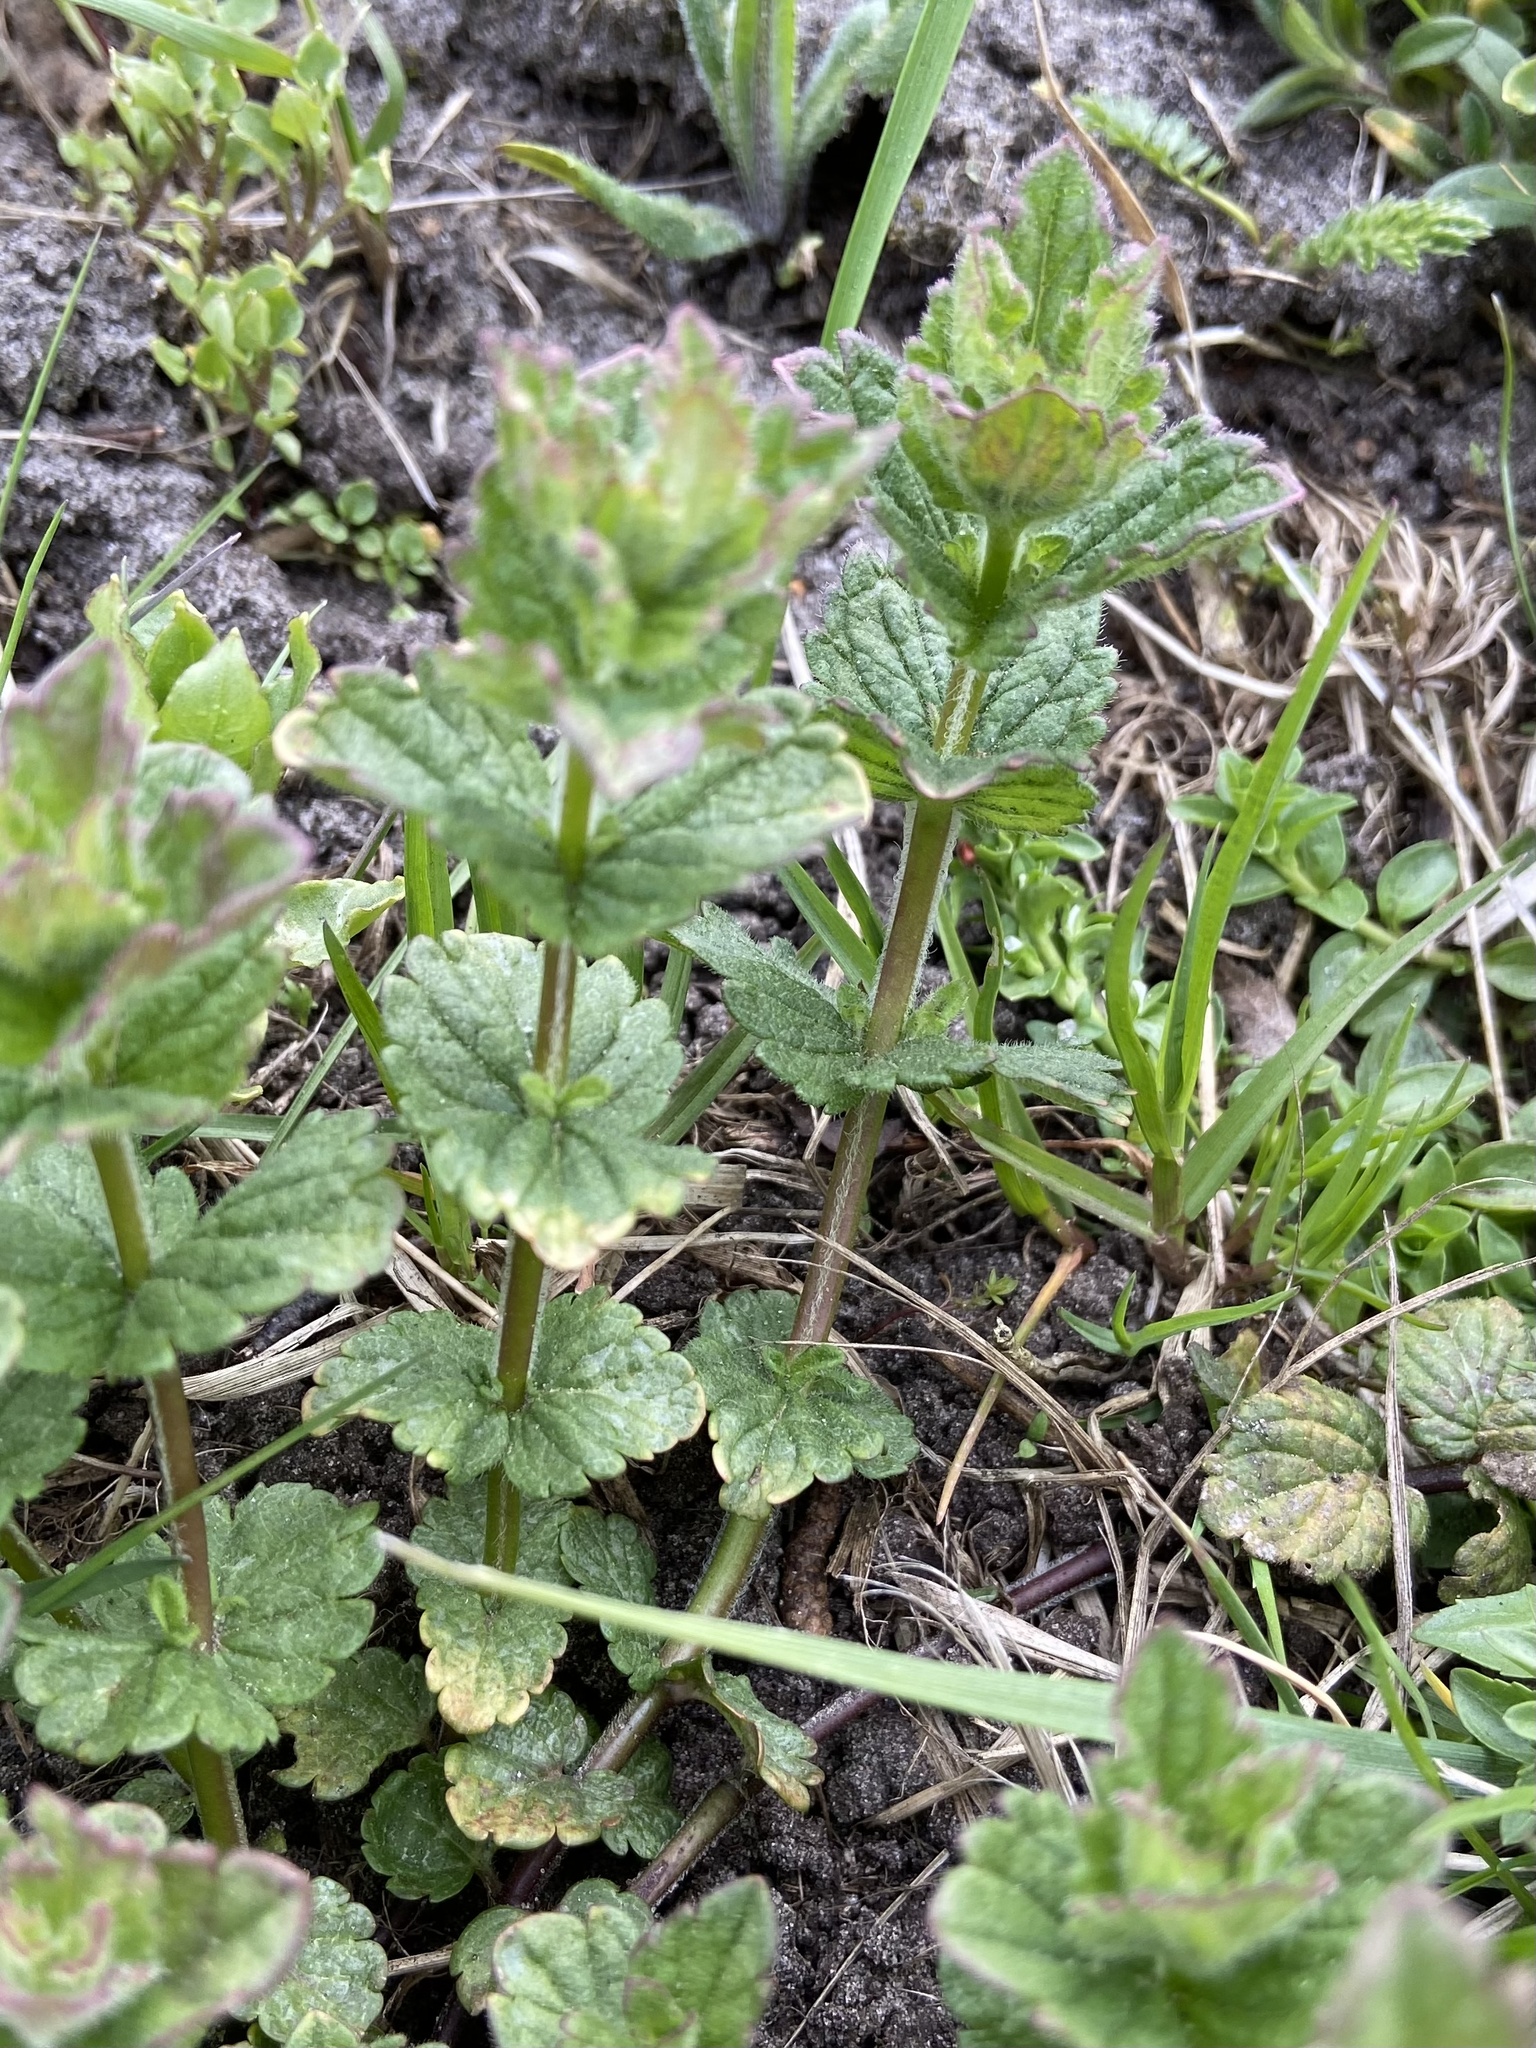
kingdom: Plantae
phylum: Tracheophyta
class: Magnoliopsida
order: Lamiales
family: Plantaginaceae
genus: Veronica
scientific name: Veronica chamaedrys
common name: Germander speedwell
